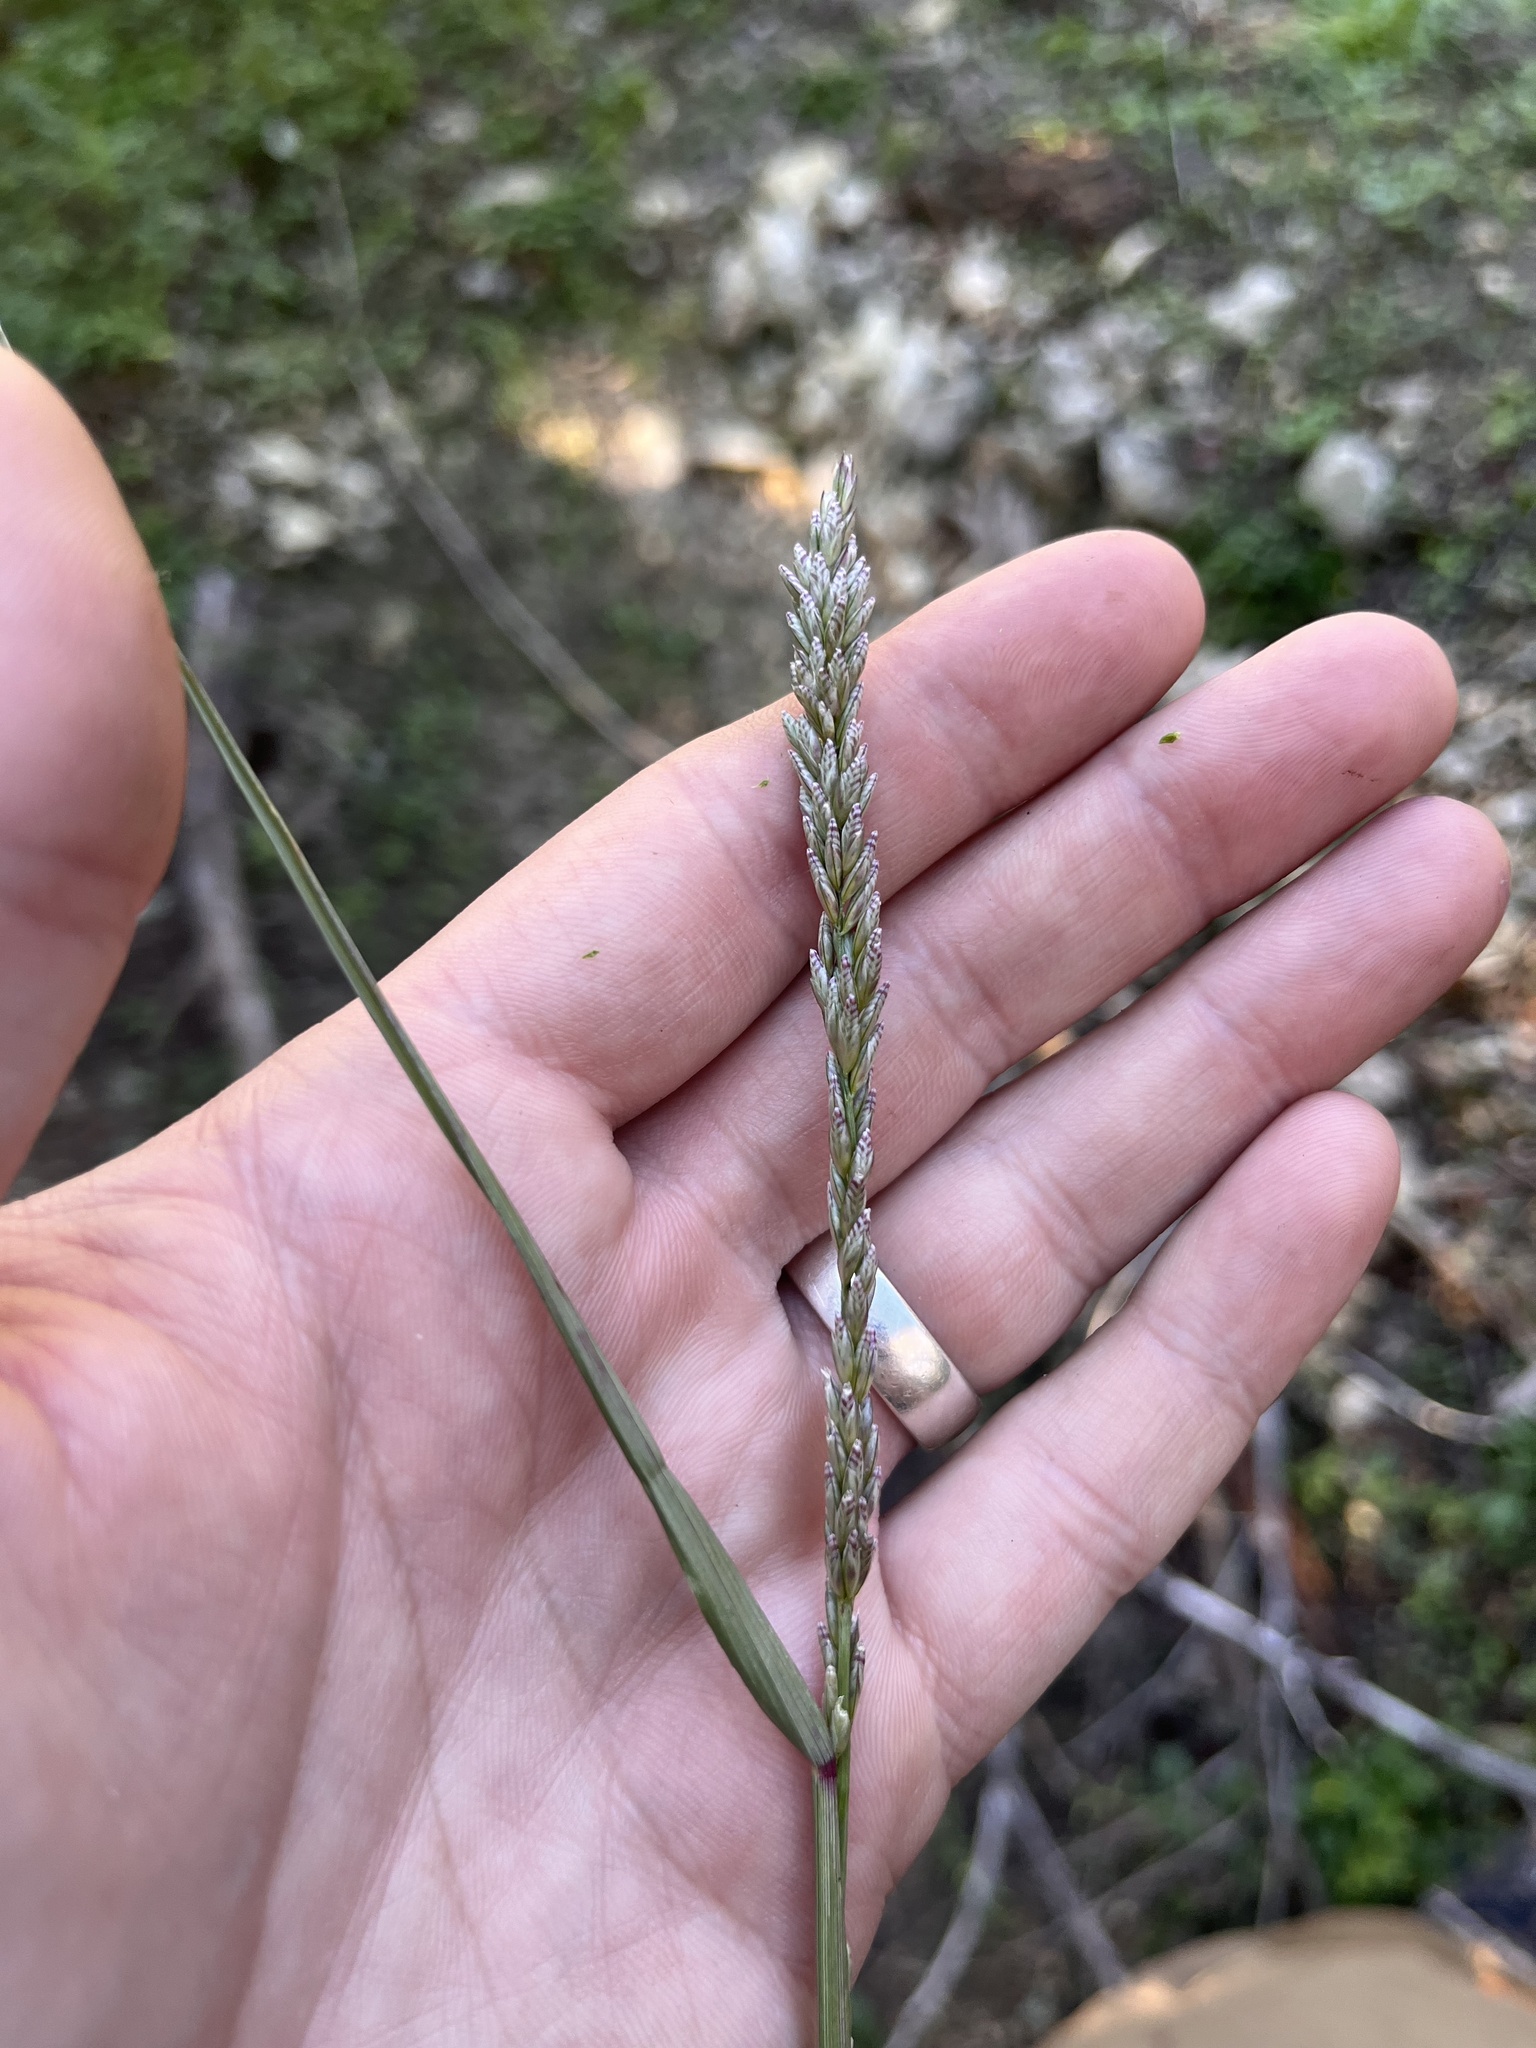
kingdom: Plantae
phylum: Tracheophyta
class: Liliopsida
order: Poales
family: Poaceae
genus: Tridens
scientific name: Tridens albescens
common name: White tridens
